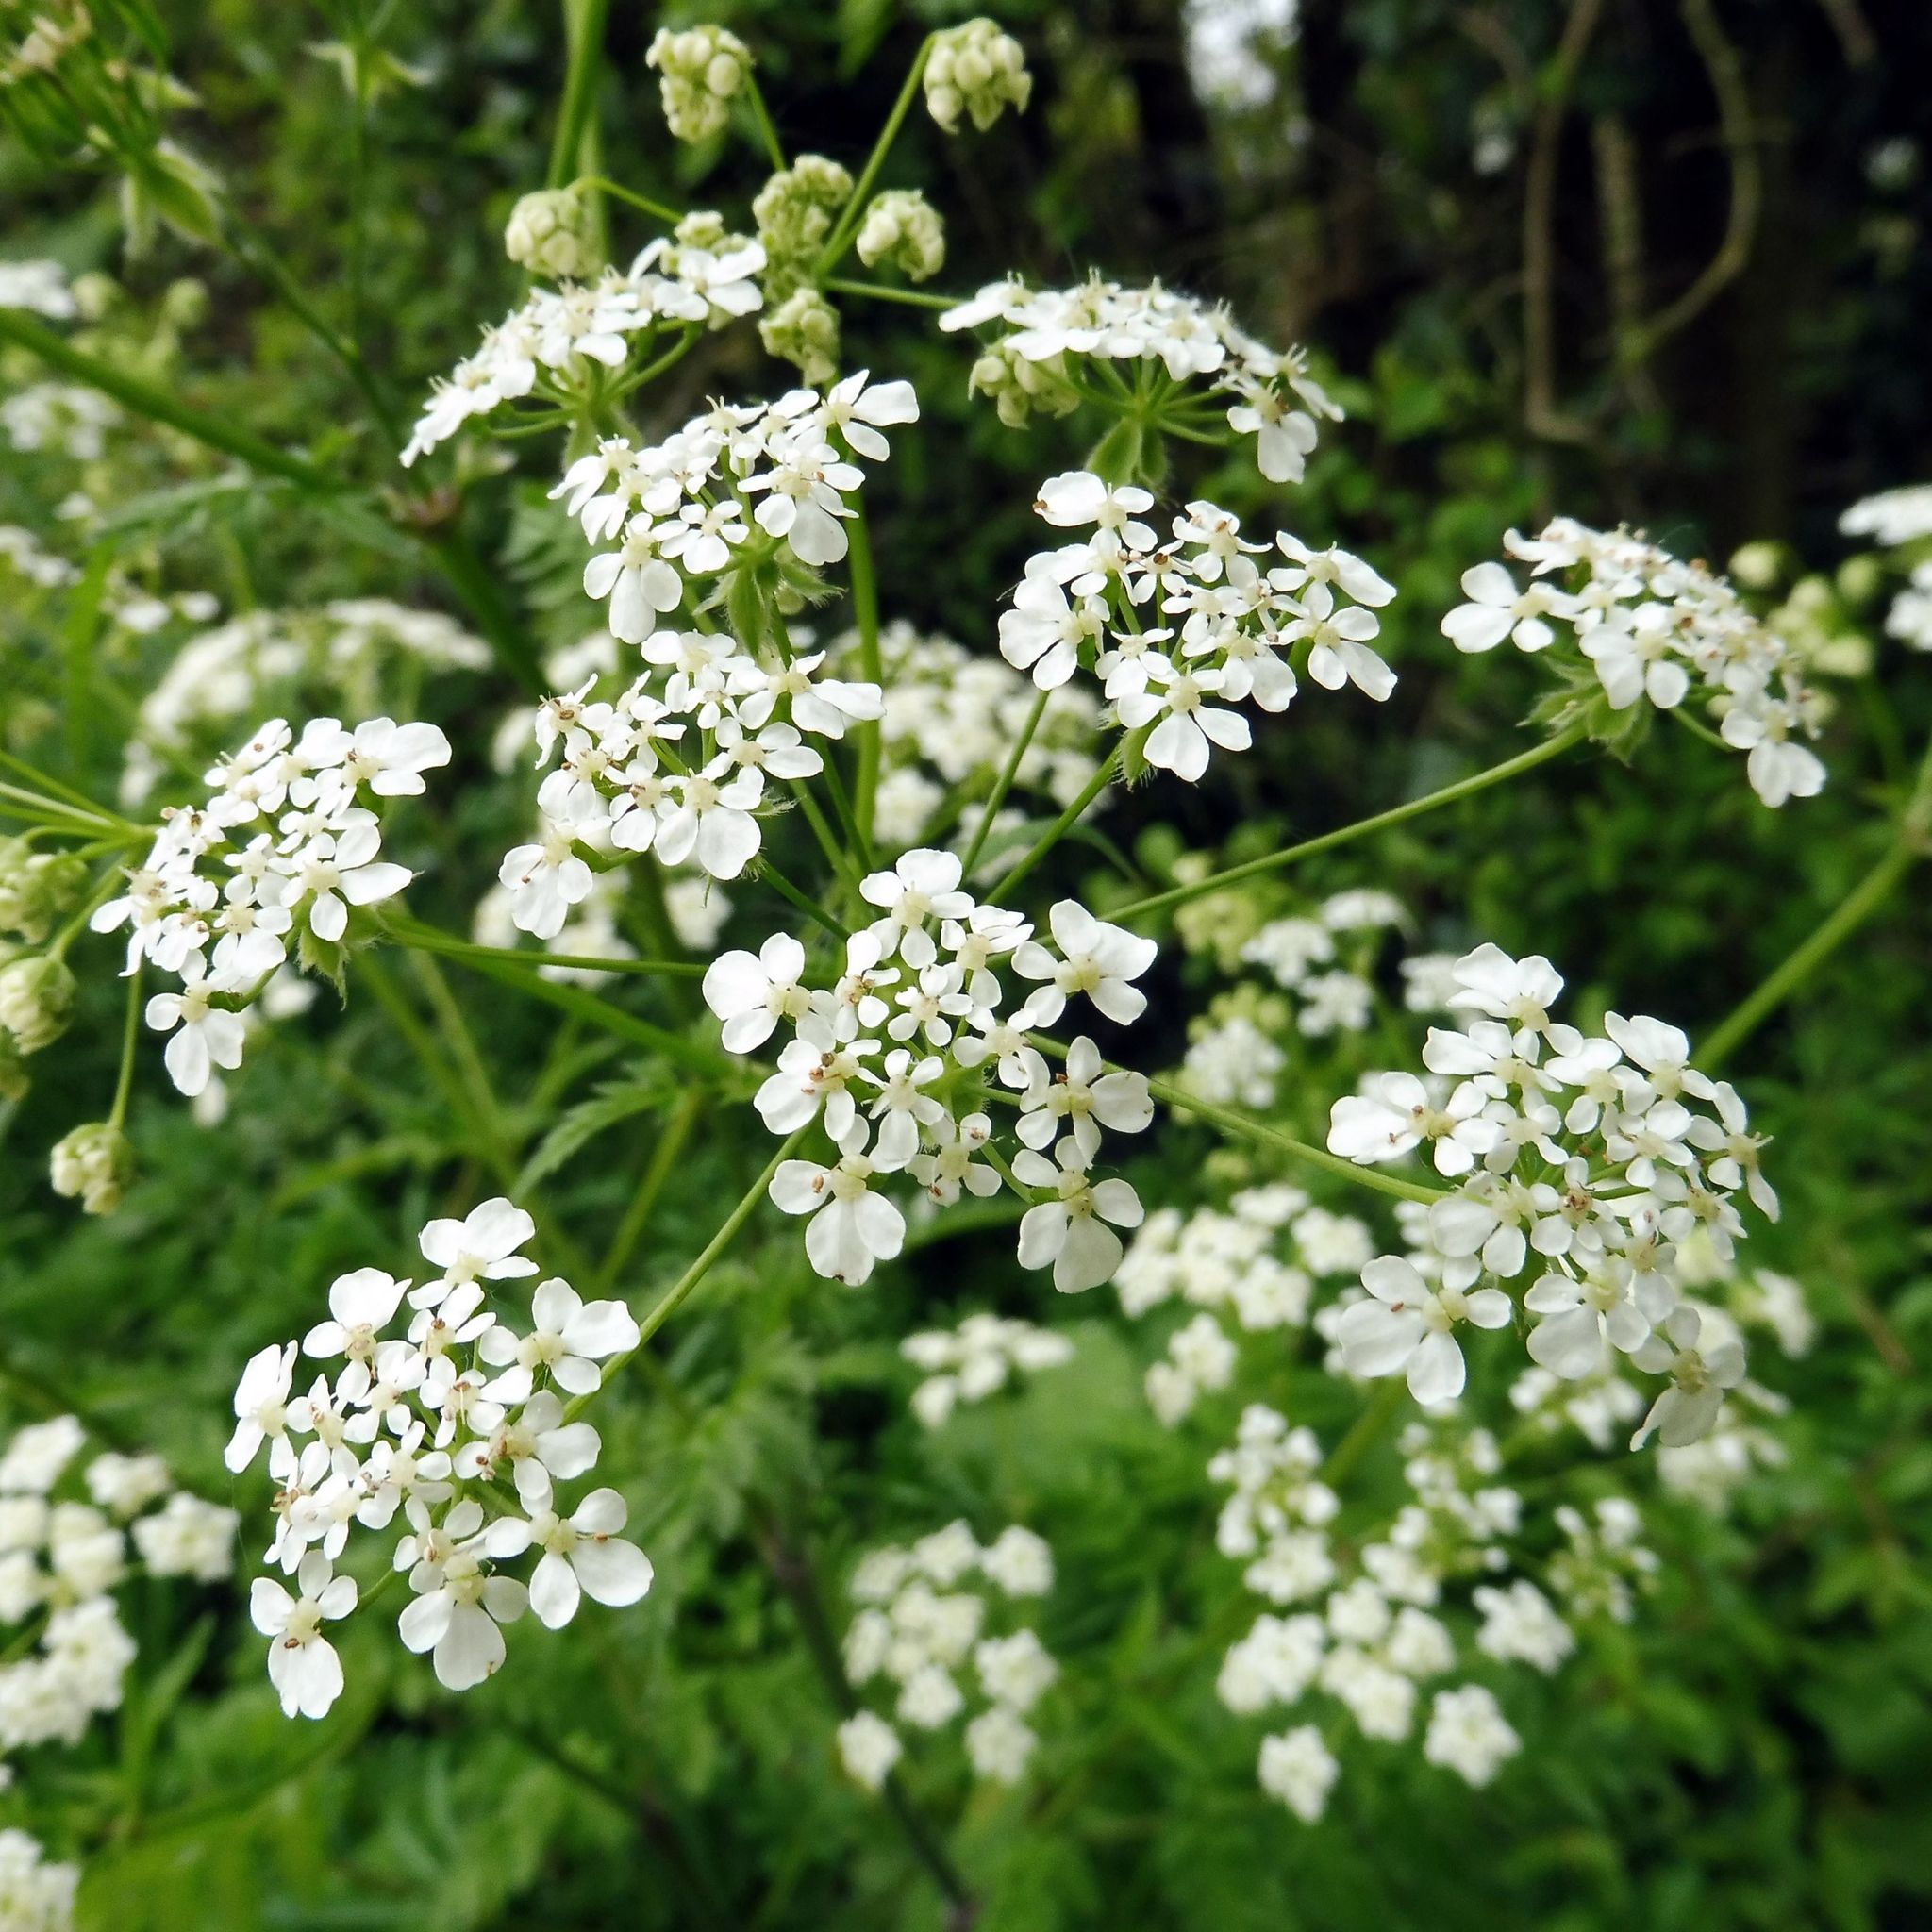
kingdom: Plantae
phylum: Tracheophyta
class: Magnoliopsida
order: Apiales
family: Apiaceae
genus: Anthriscus
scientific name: Anthriscus sylvestris
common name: Cow parsley
